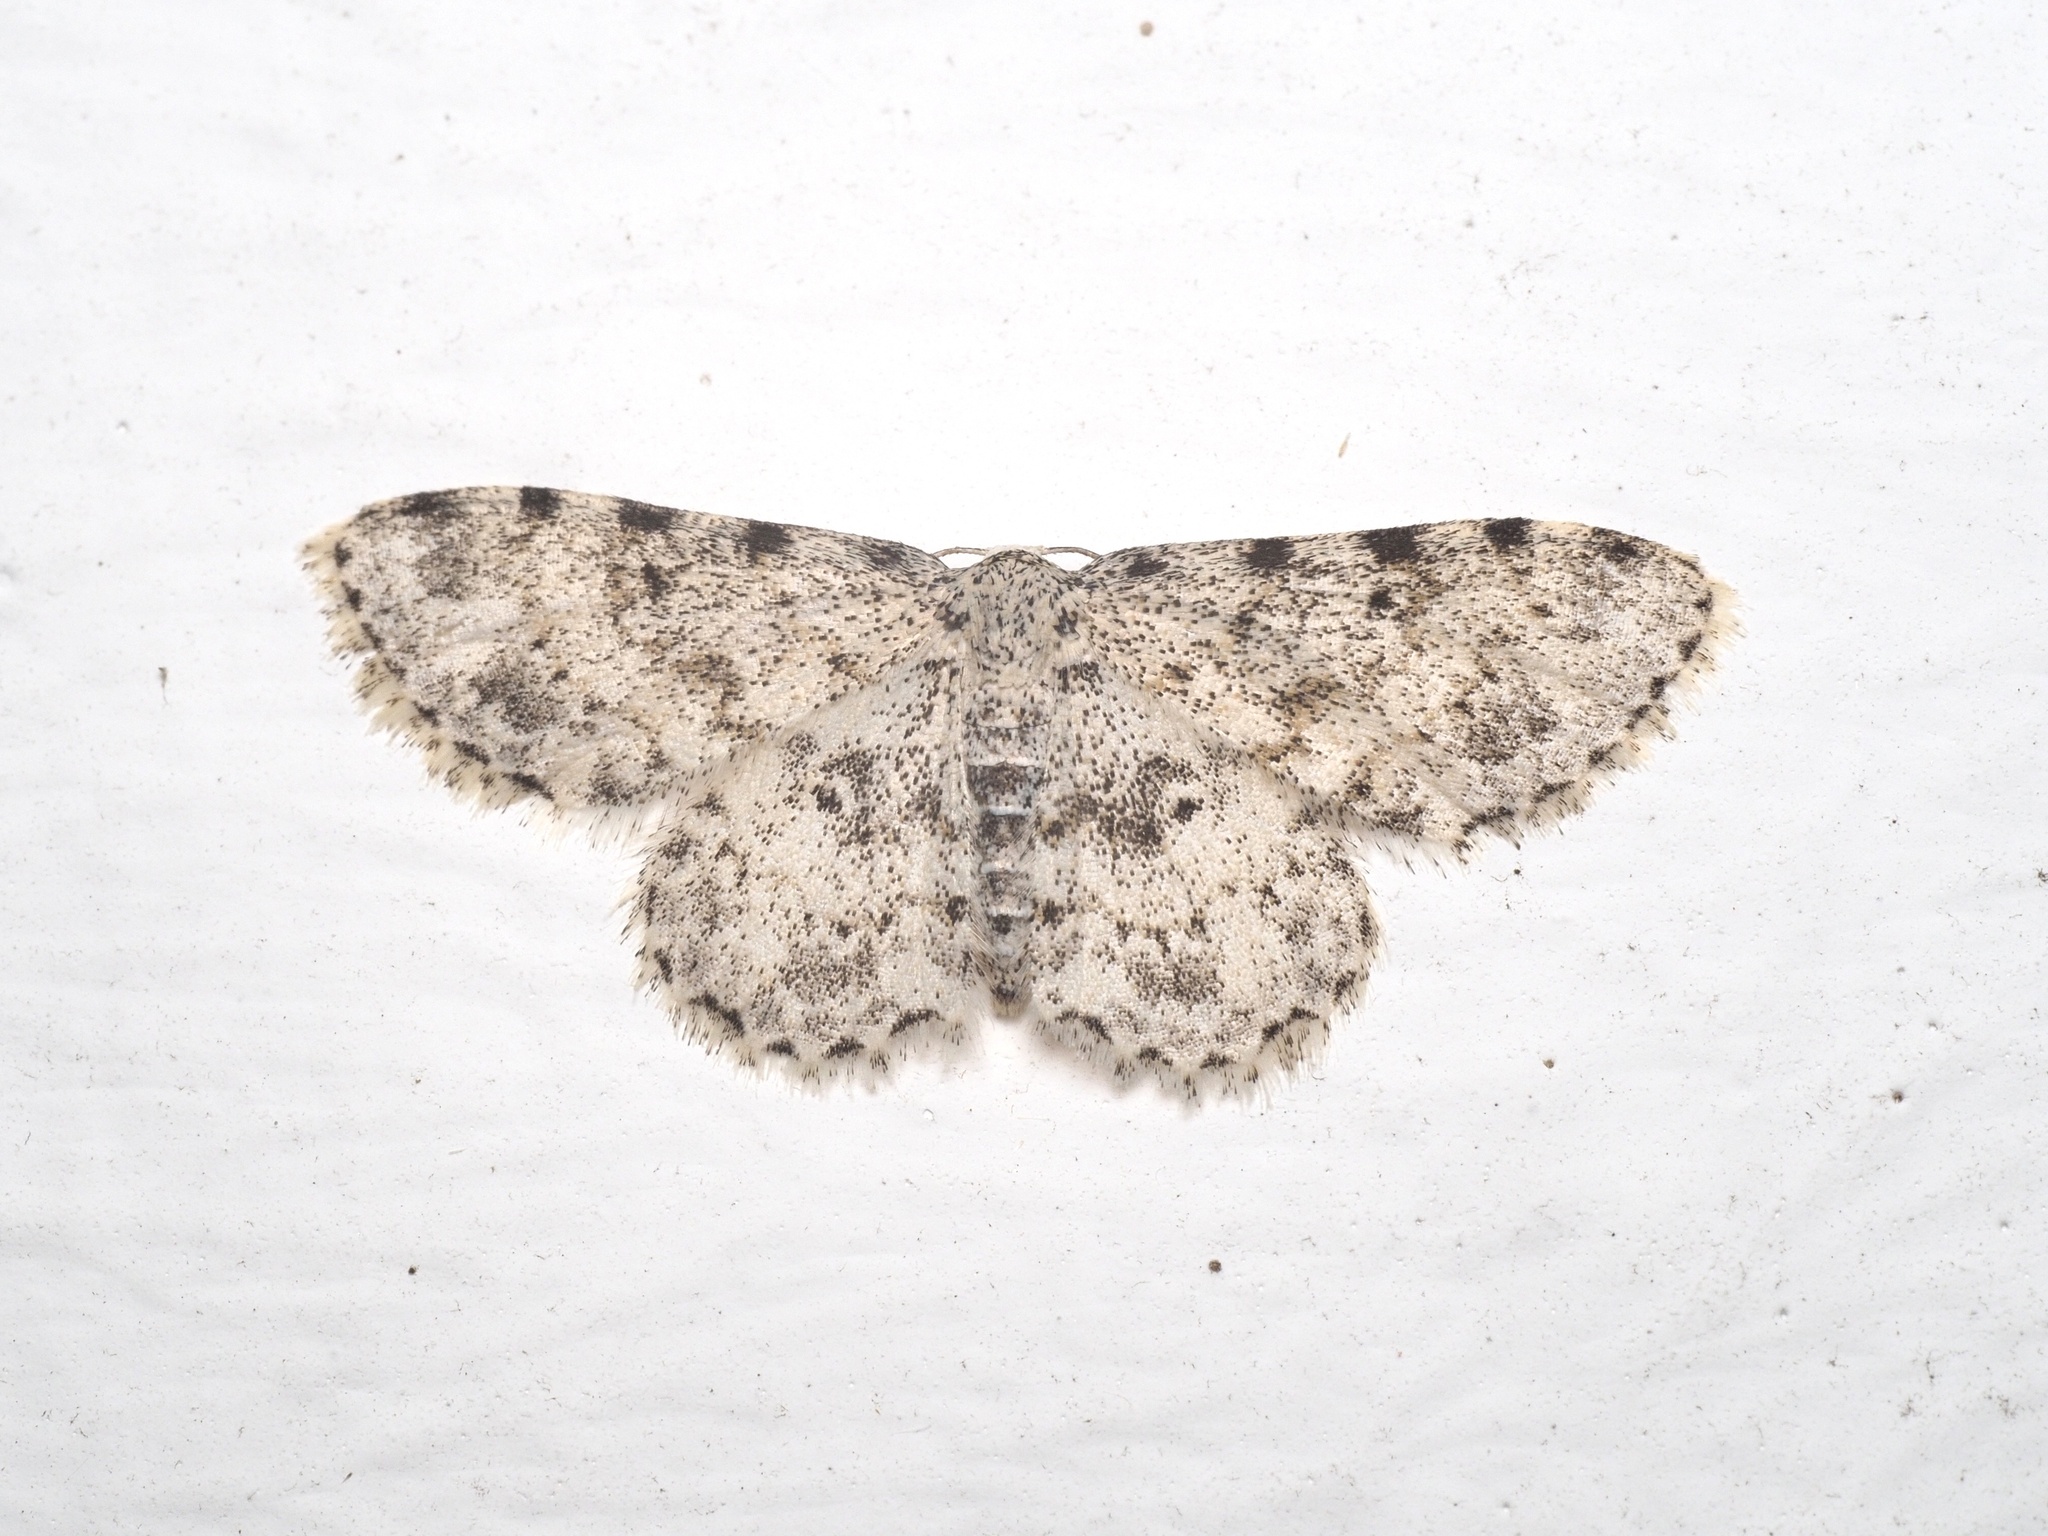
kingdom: Animalia
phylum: Arthropoda
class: Insecta
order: Lepidoptera
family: Geometridae
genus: Scopula
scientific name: Scopula nigrinotata
